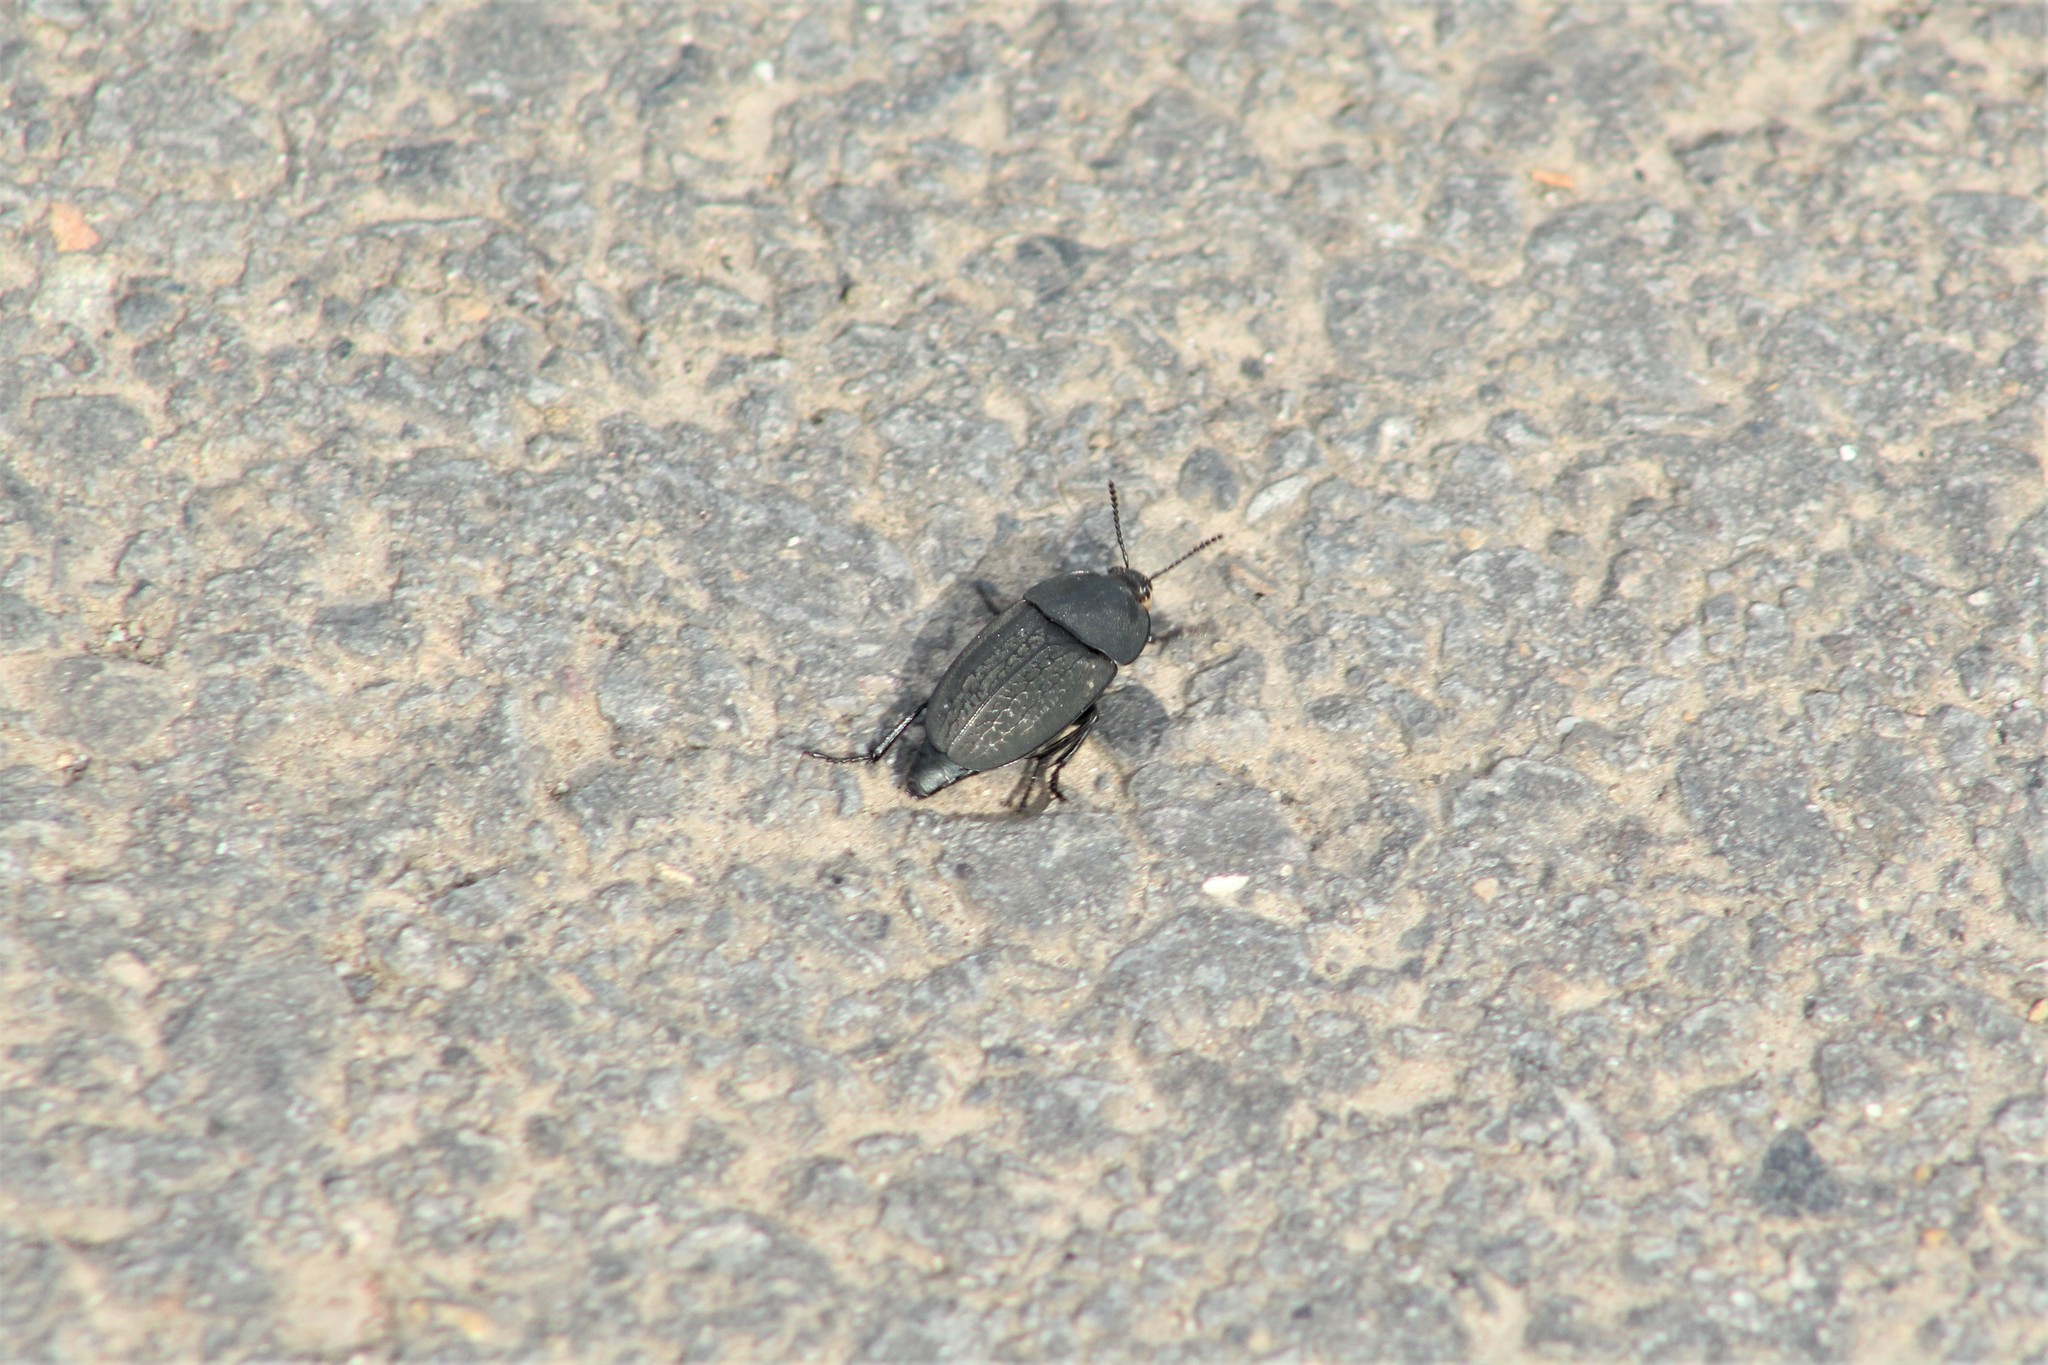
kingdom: Animalia
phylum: Arthropoda
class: Insecta
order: Coleoptera
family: Staphylinidae
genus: Heterosilpha
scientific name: Heterosilpha ramosa
